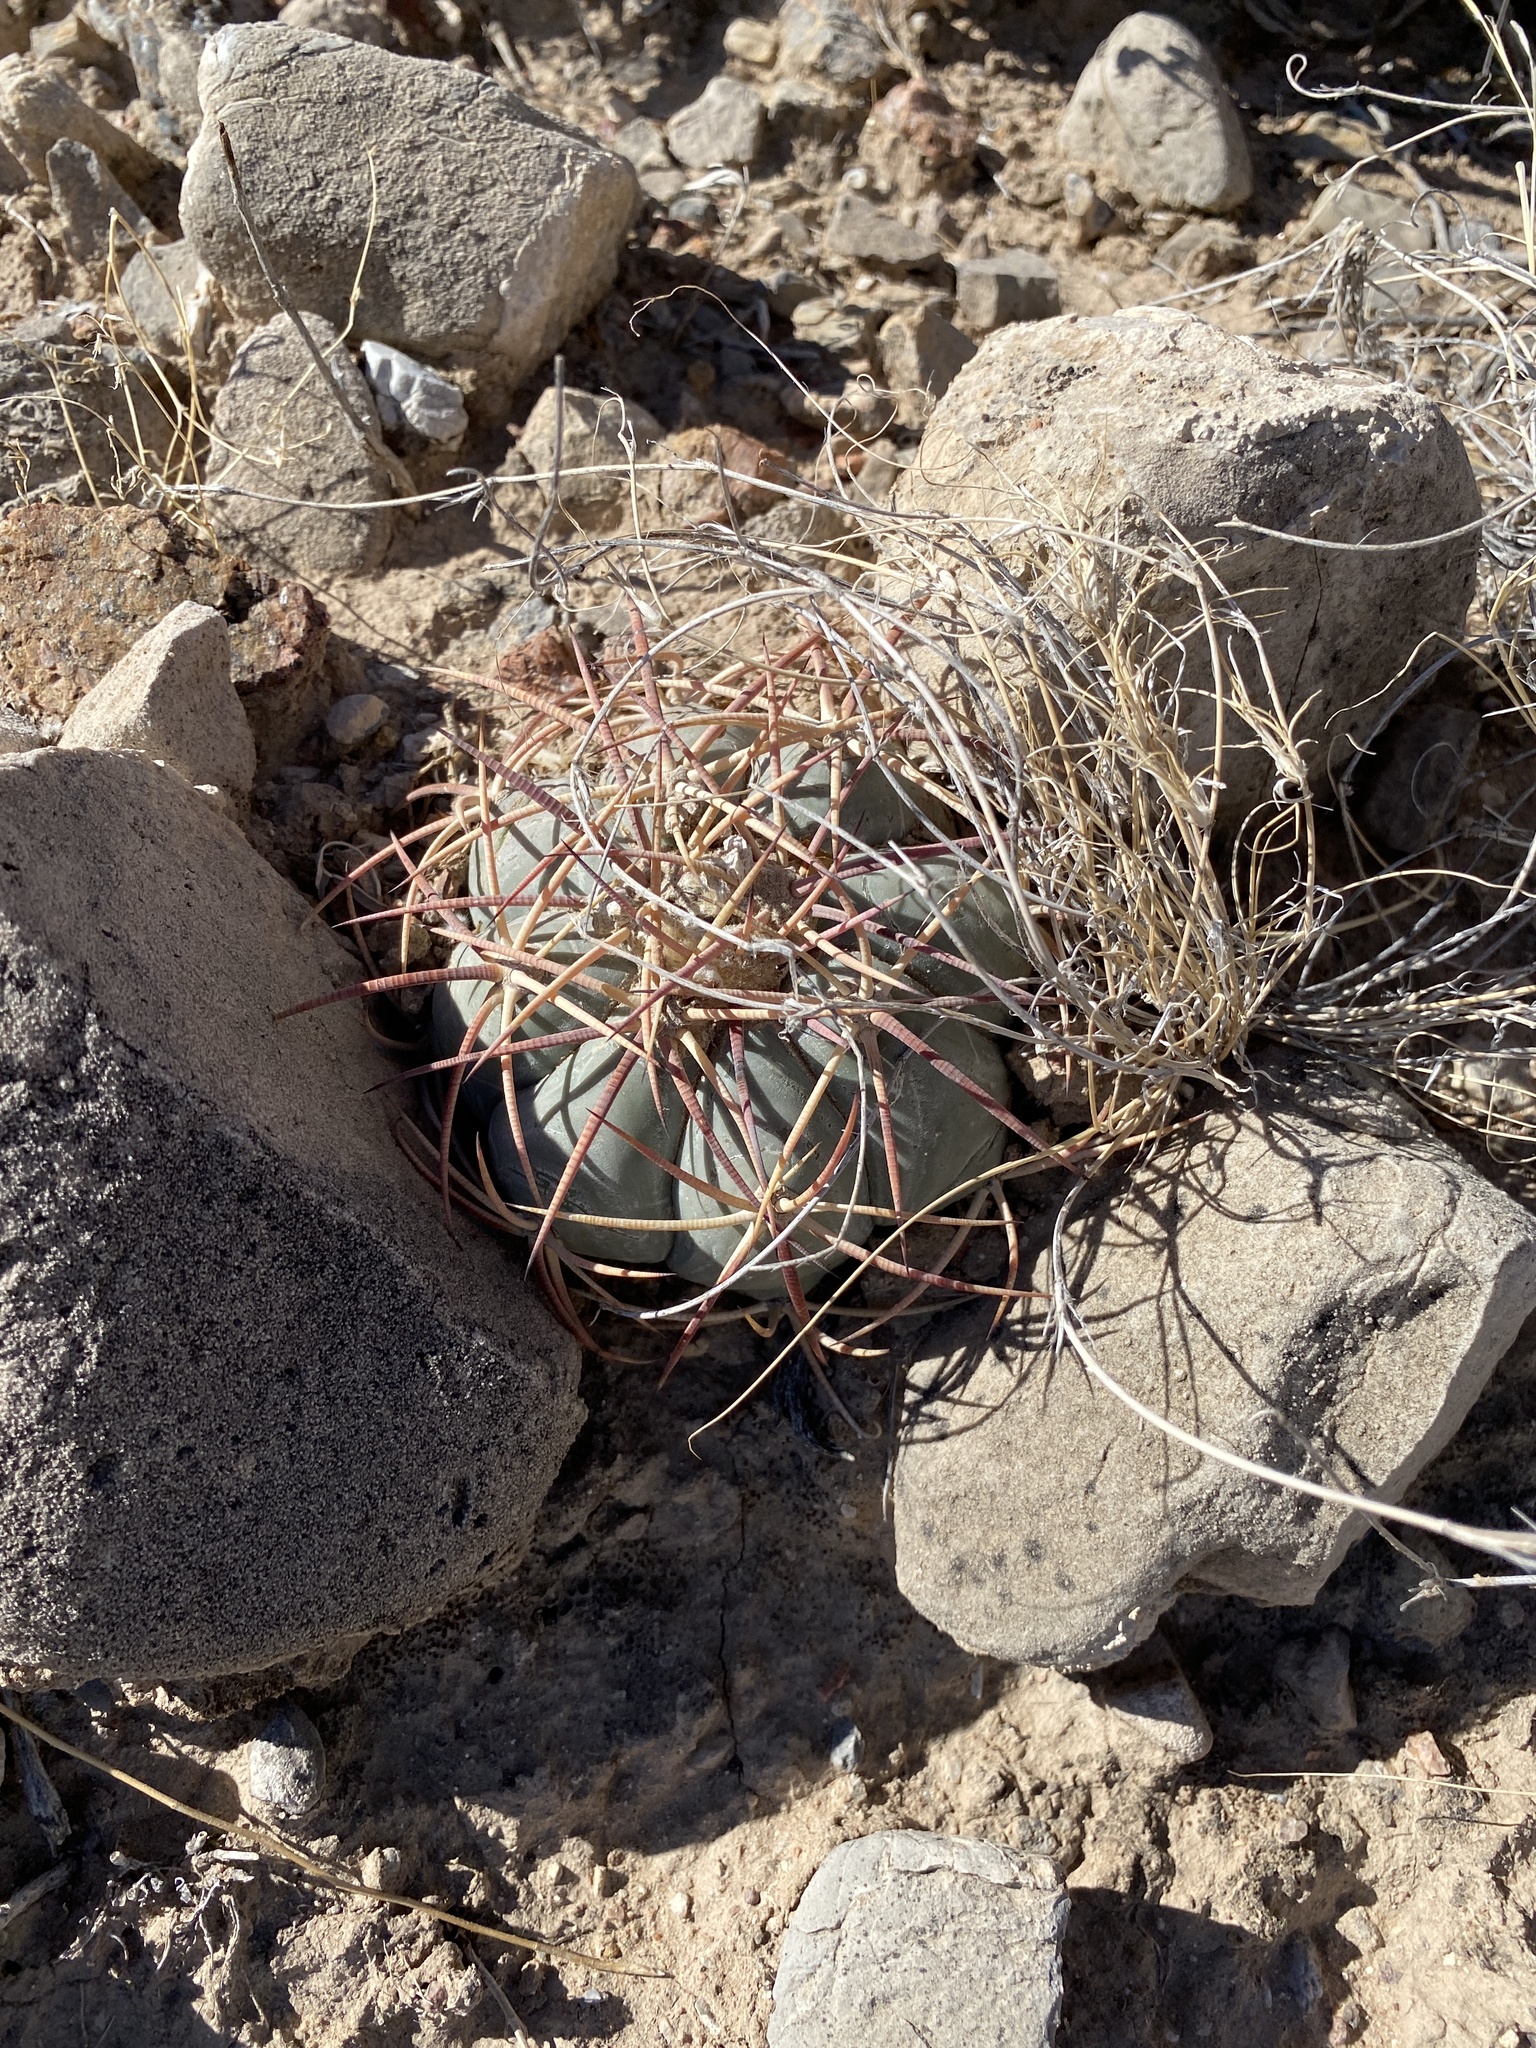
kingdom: Plantae
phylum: Tracheophyta
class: Magnoliopsida
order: Caryophyllales
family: Cactaceae
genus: Echinocactus
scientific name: Echinocactus horizonthalonius
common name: Devilshead
